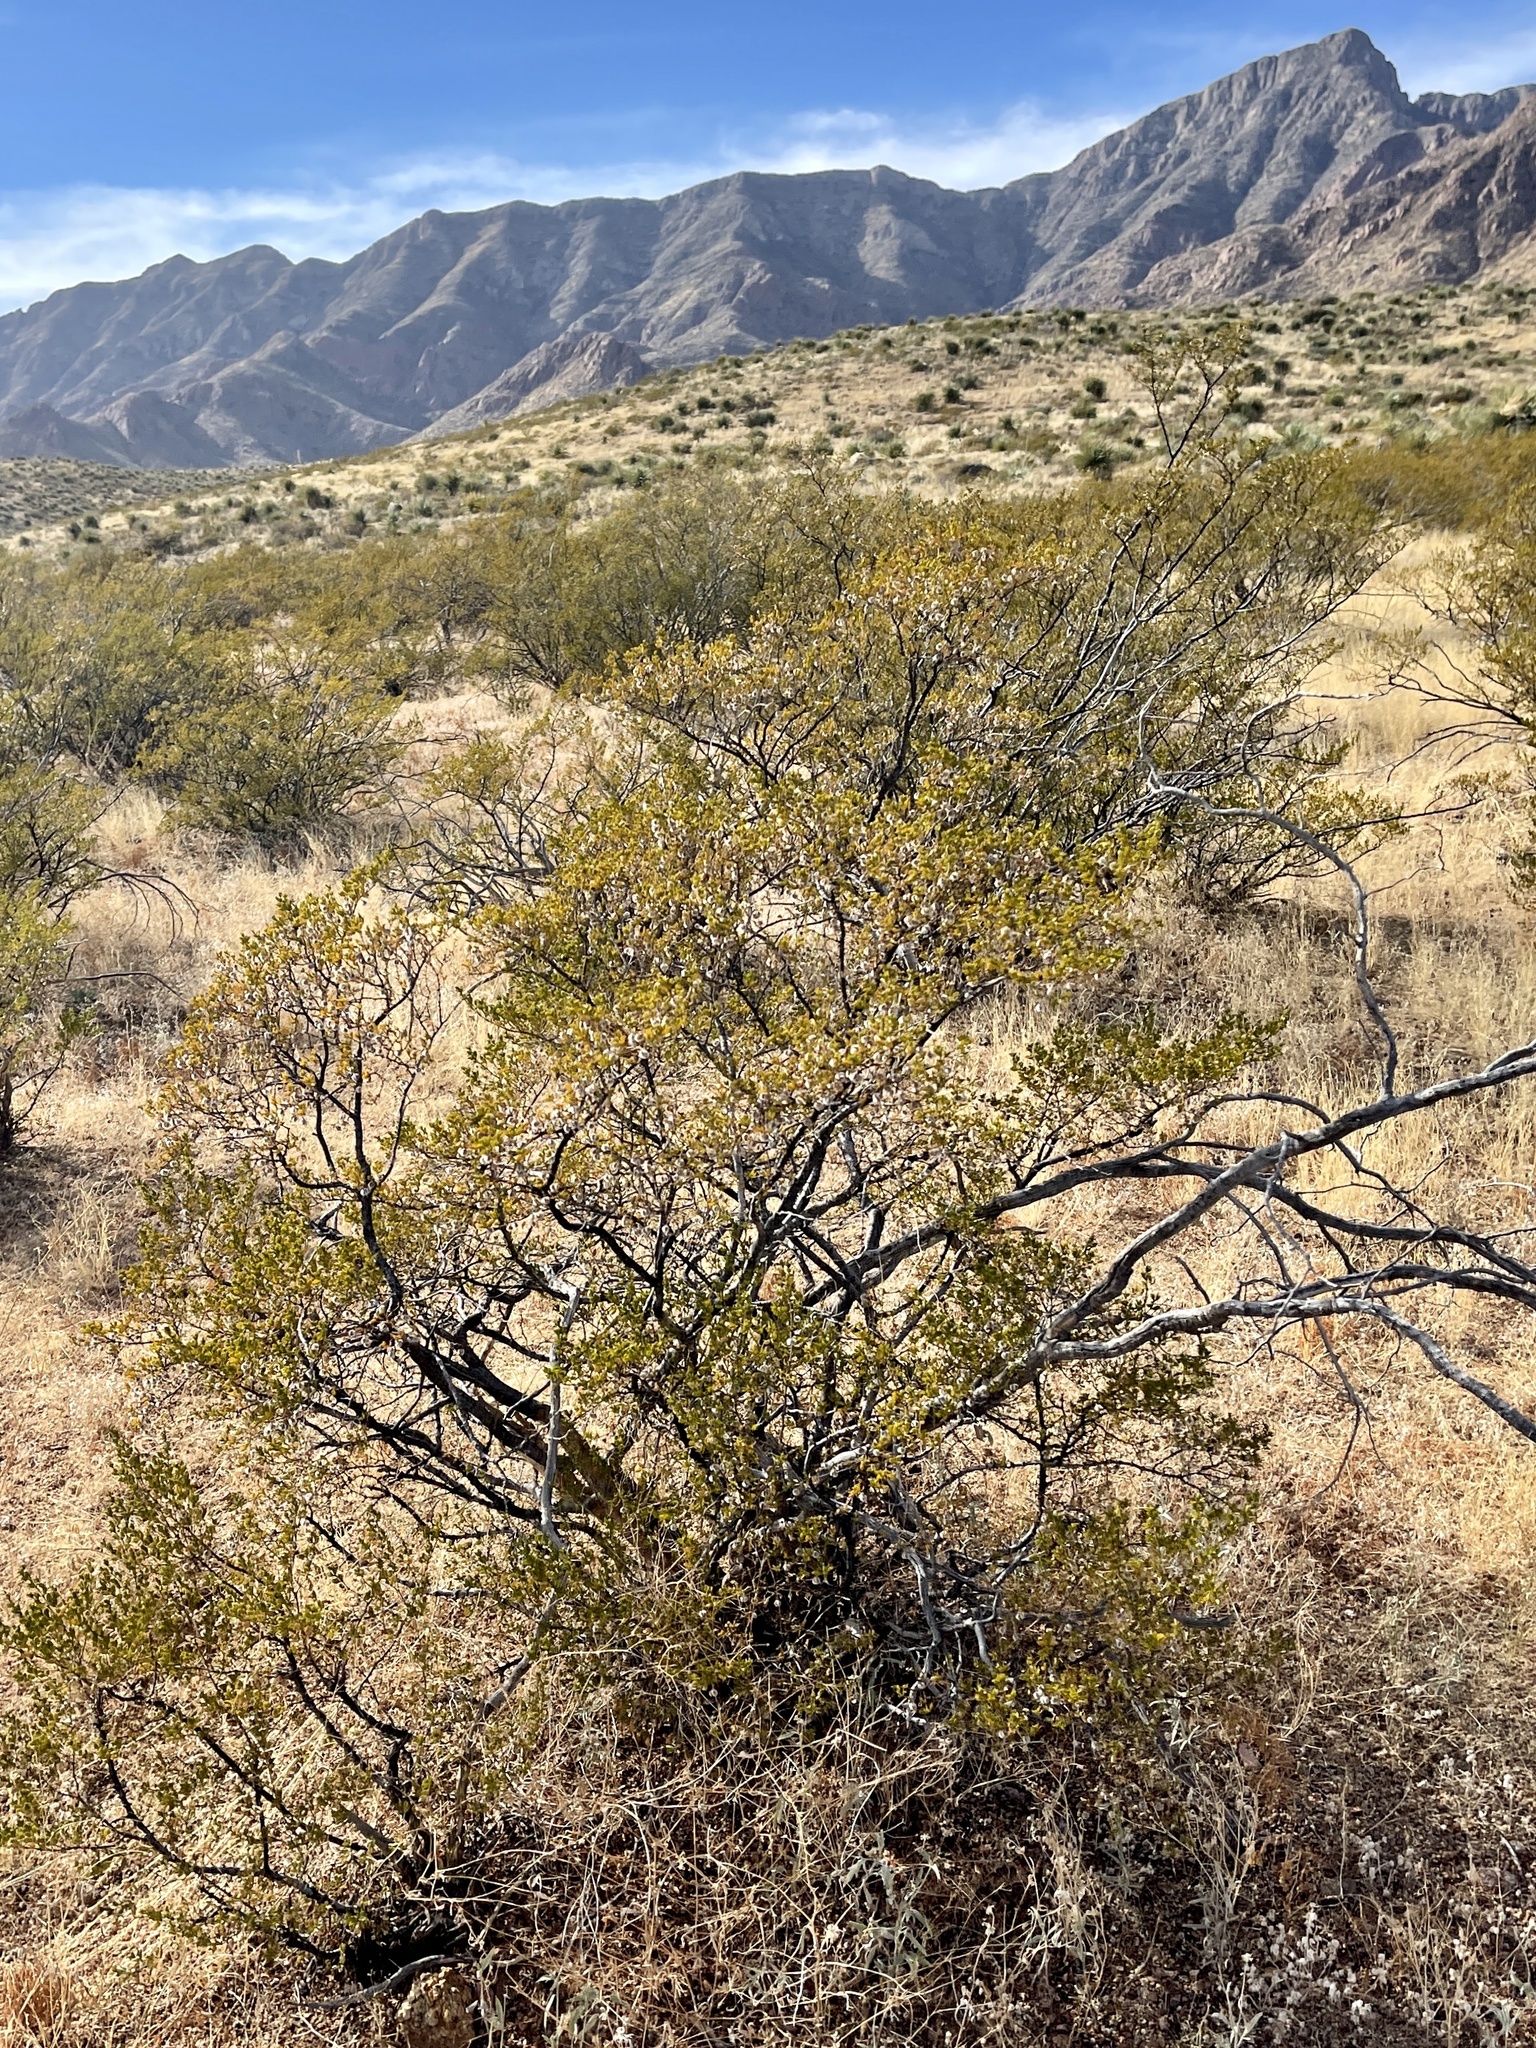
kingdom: Plantae
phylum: Tracheophyta
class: Magnoliopsida
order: Zygophyllales
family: Zygophyllaceae
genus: Larrea
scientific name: Larrea tridentata
